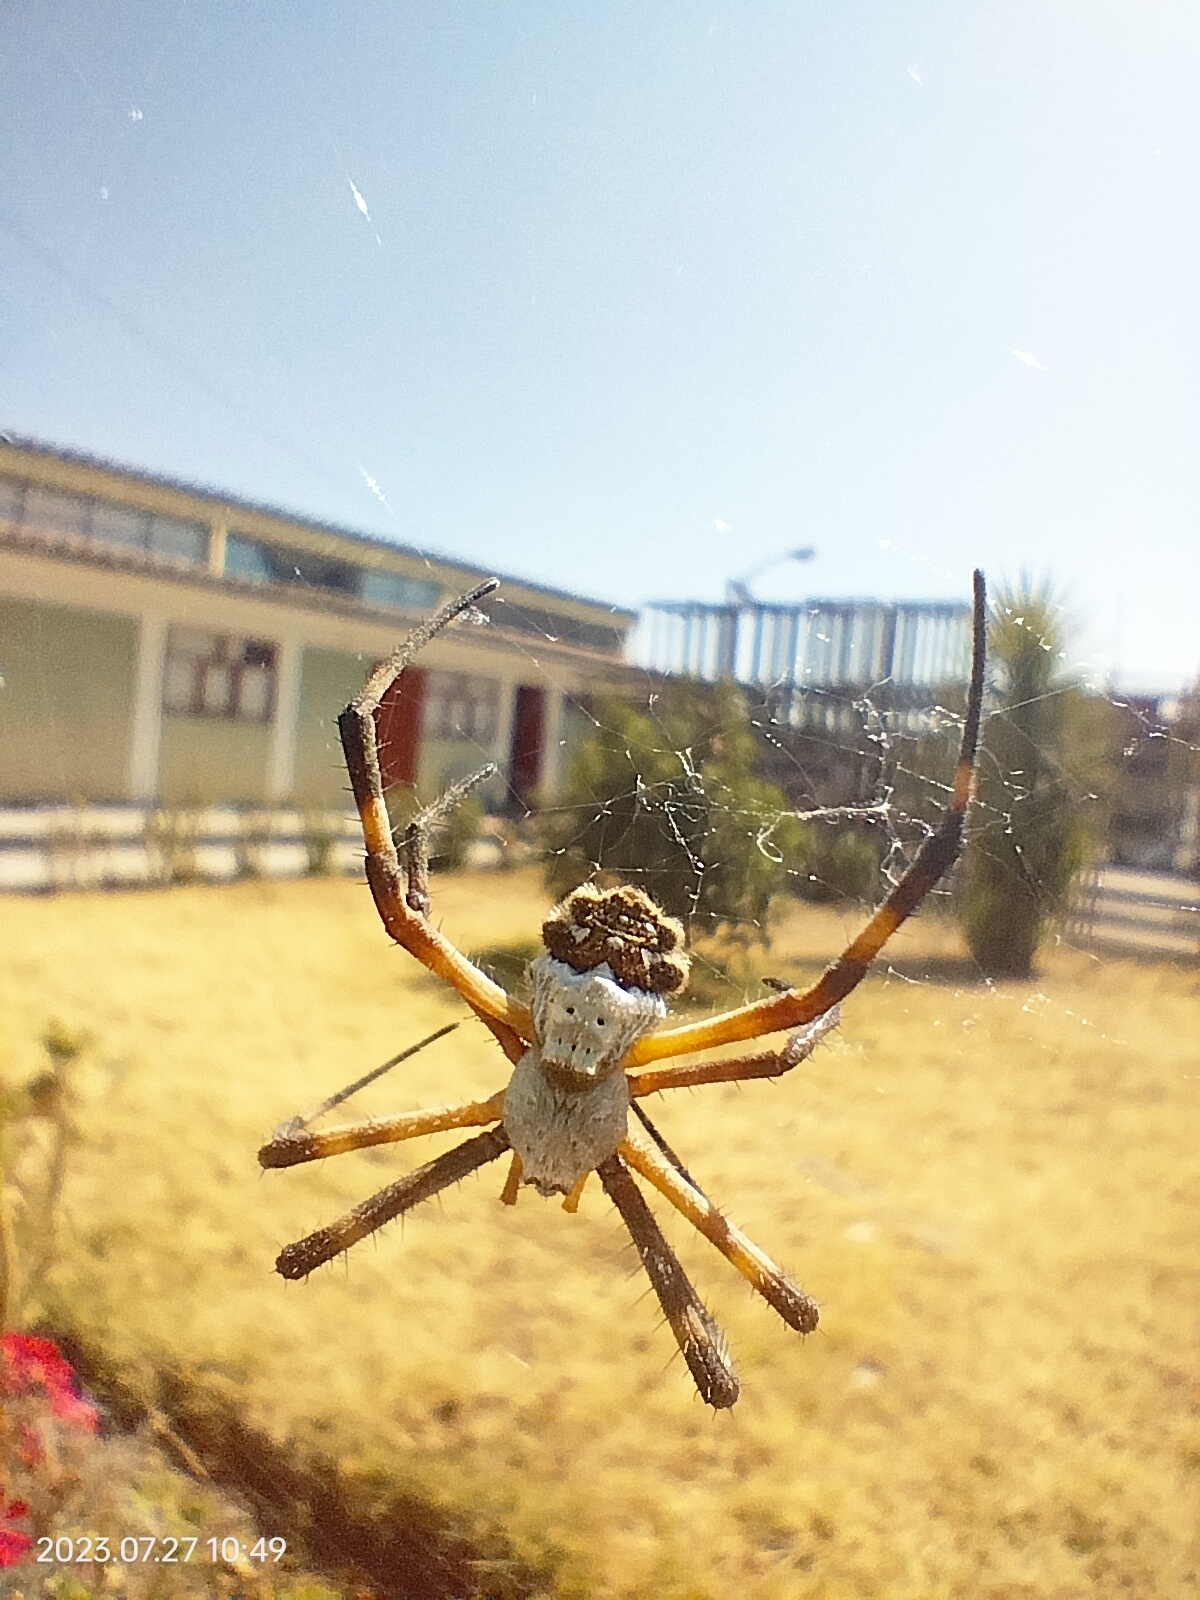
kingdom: Animalia
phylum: Arthropoda
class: Arachnida
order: Araneae
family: Araneidae
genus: Argiope
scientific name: Argiope argentata
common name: Orb weavers
